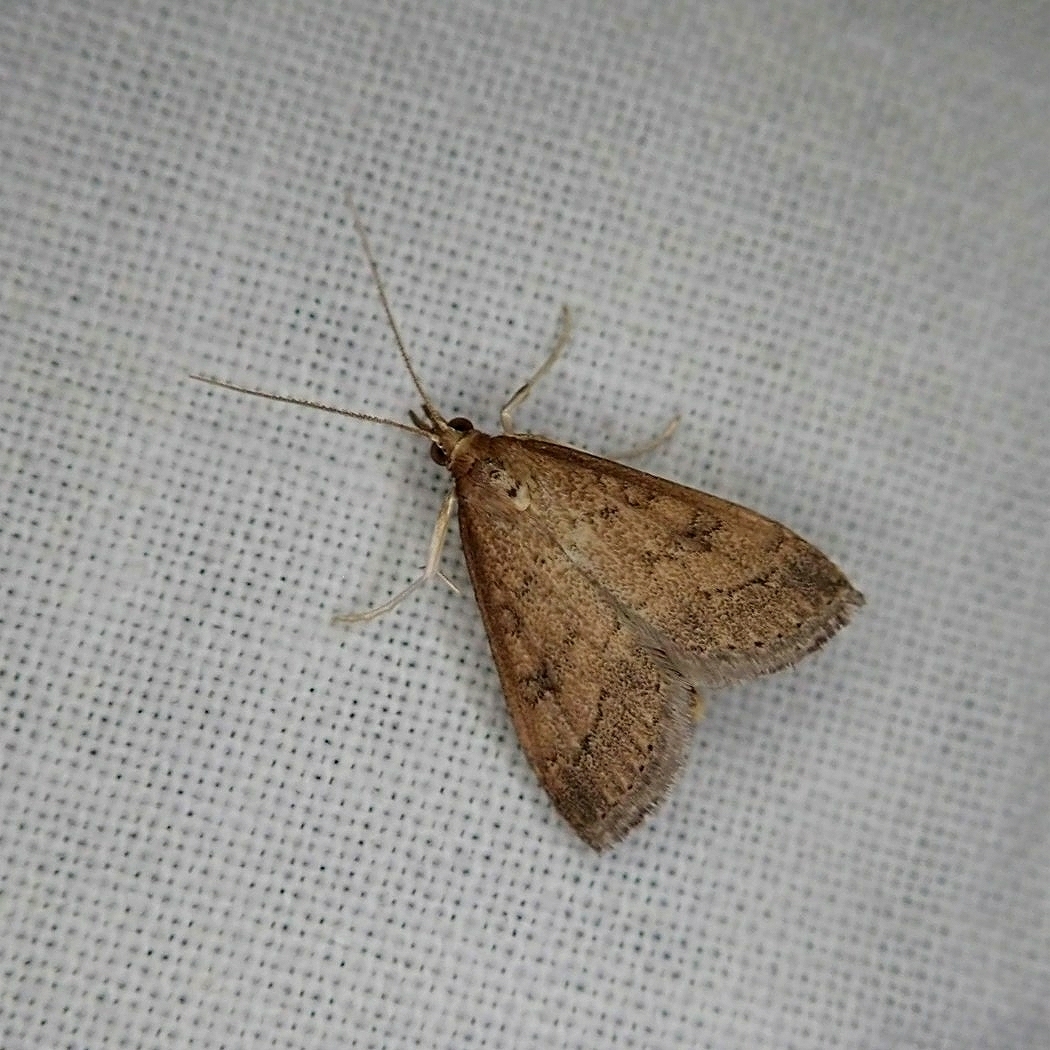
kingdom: Animalia
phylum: Arthropoda
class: Insecta
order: Lepidoptera
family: Crambidae
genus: Udea
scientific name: Udea rubigalis
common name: Celery leaftier moth
